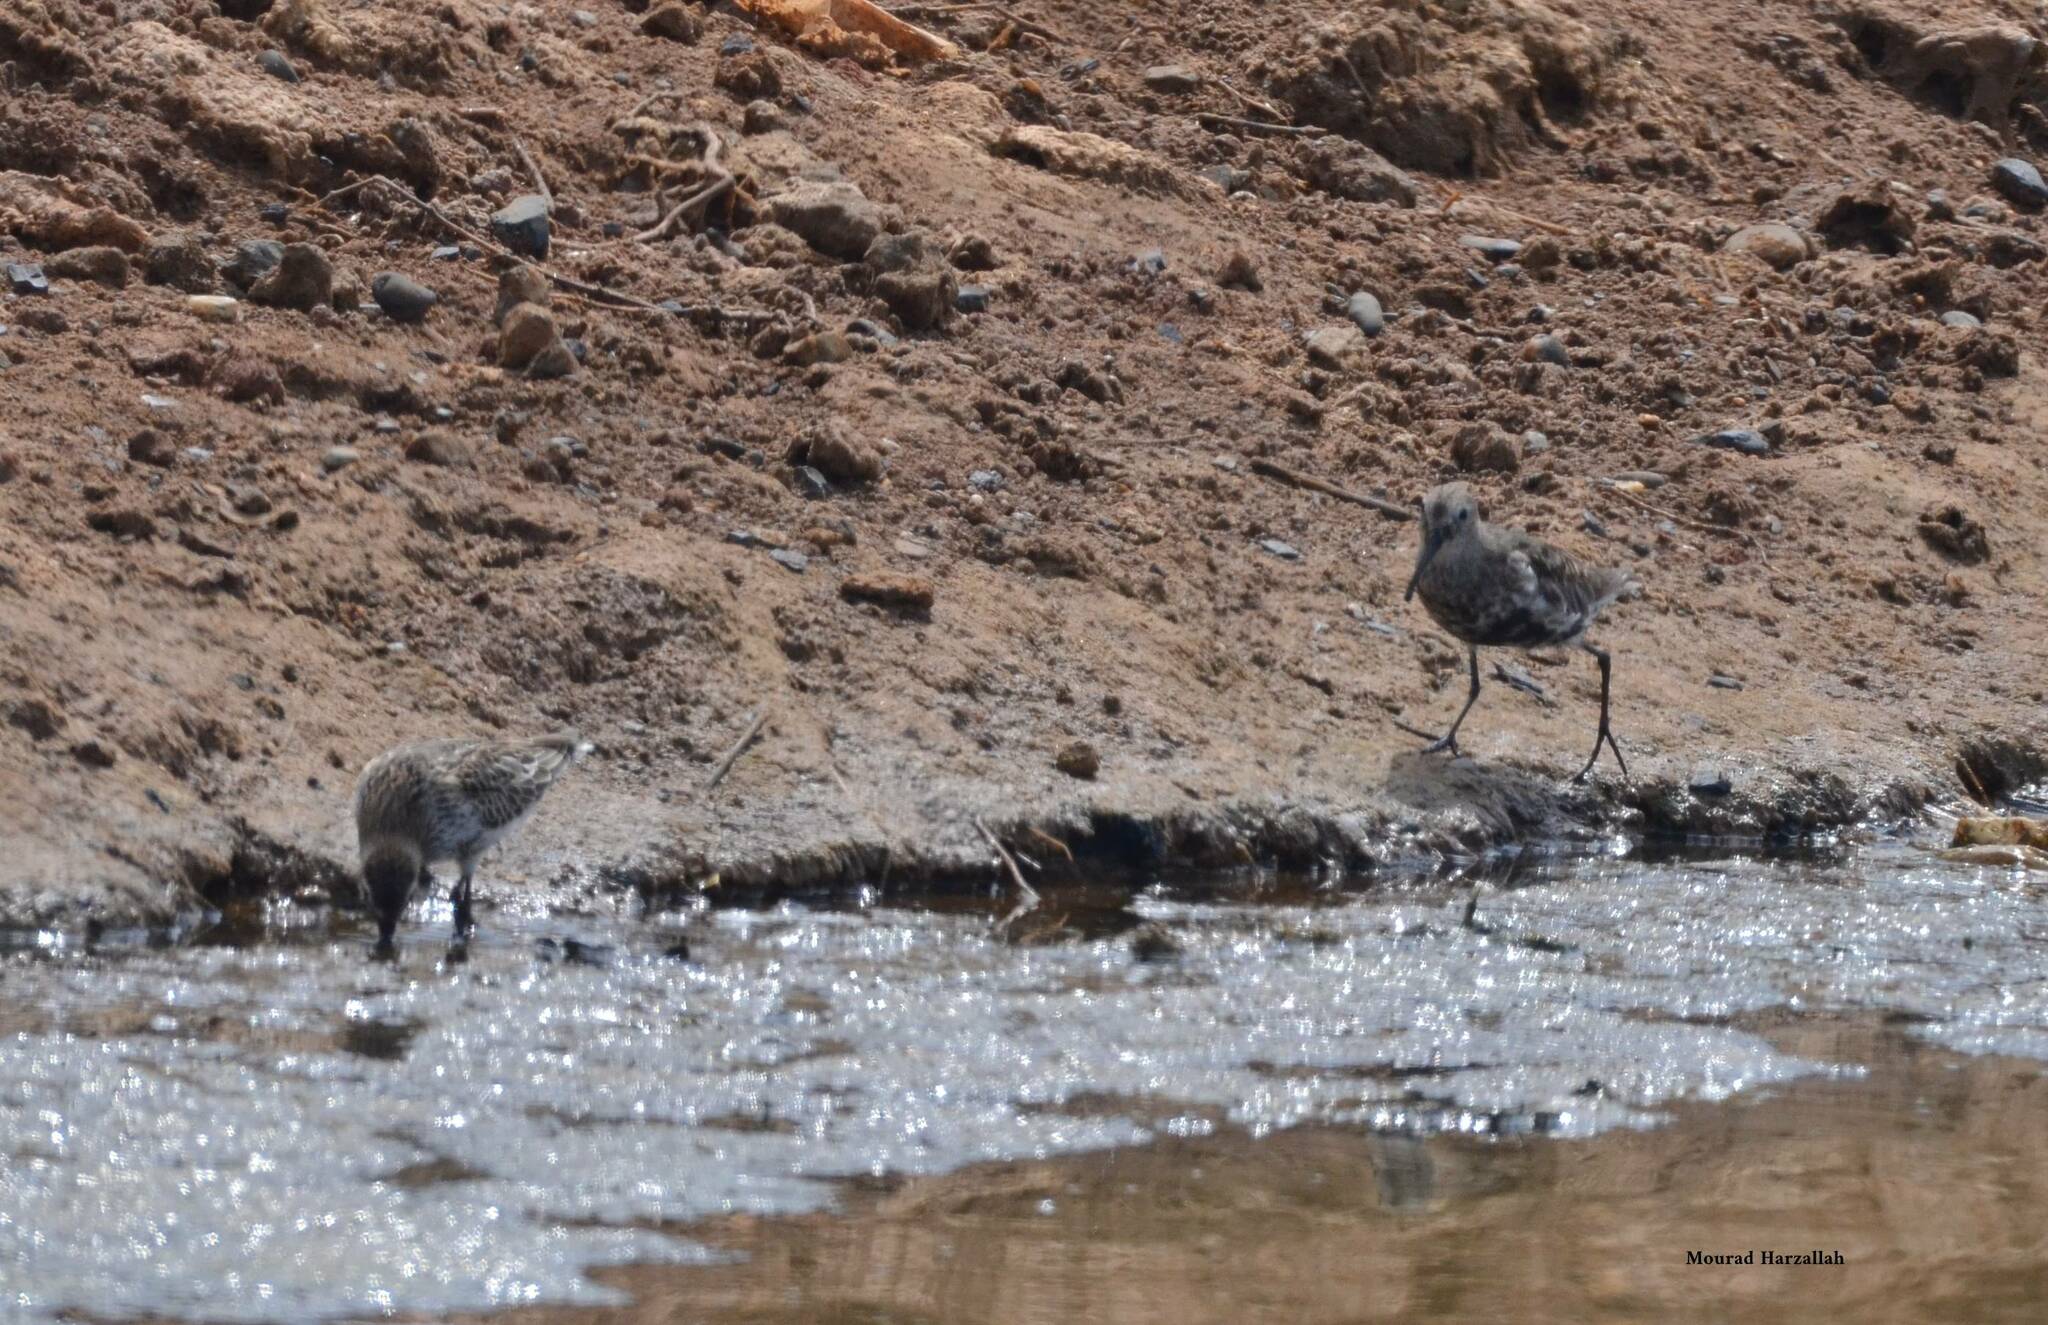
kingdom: Animalia
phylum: Chordata
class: Aves
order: Charadriiformes
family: Scolopacidae
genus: Calidris
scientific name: Calidris alpina
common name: Dunlin
